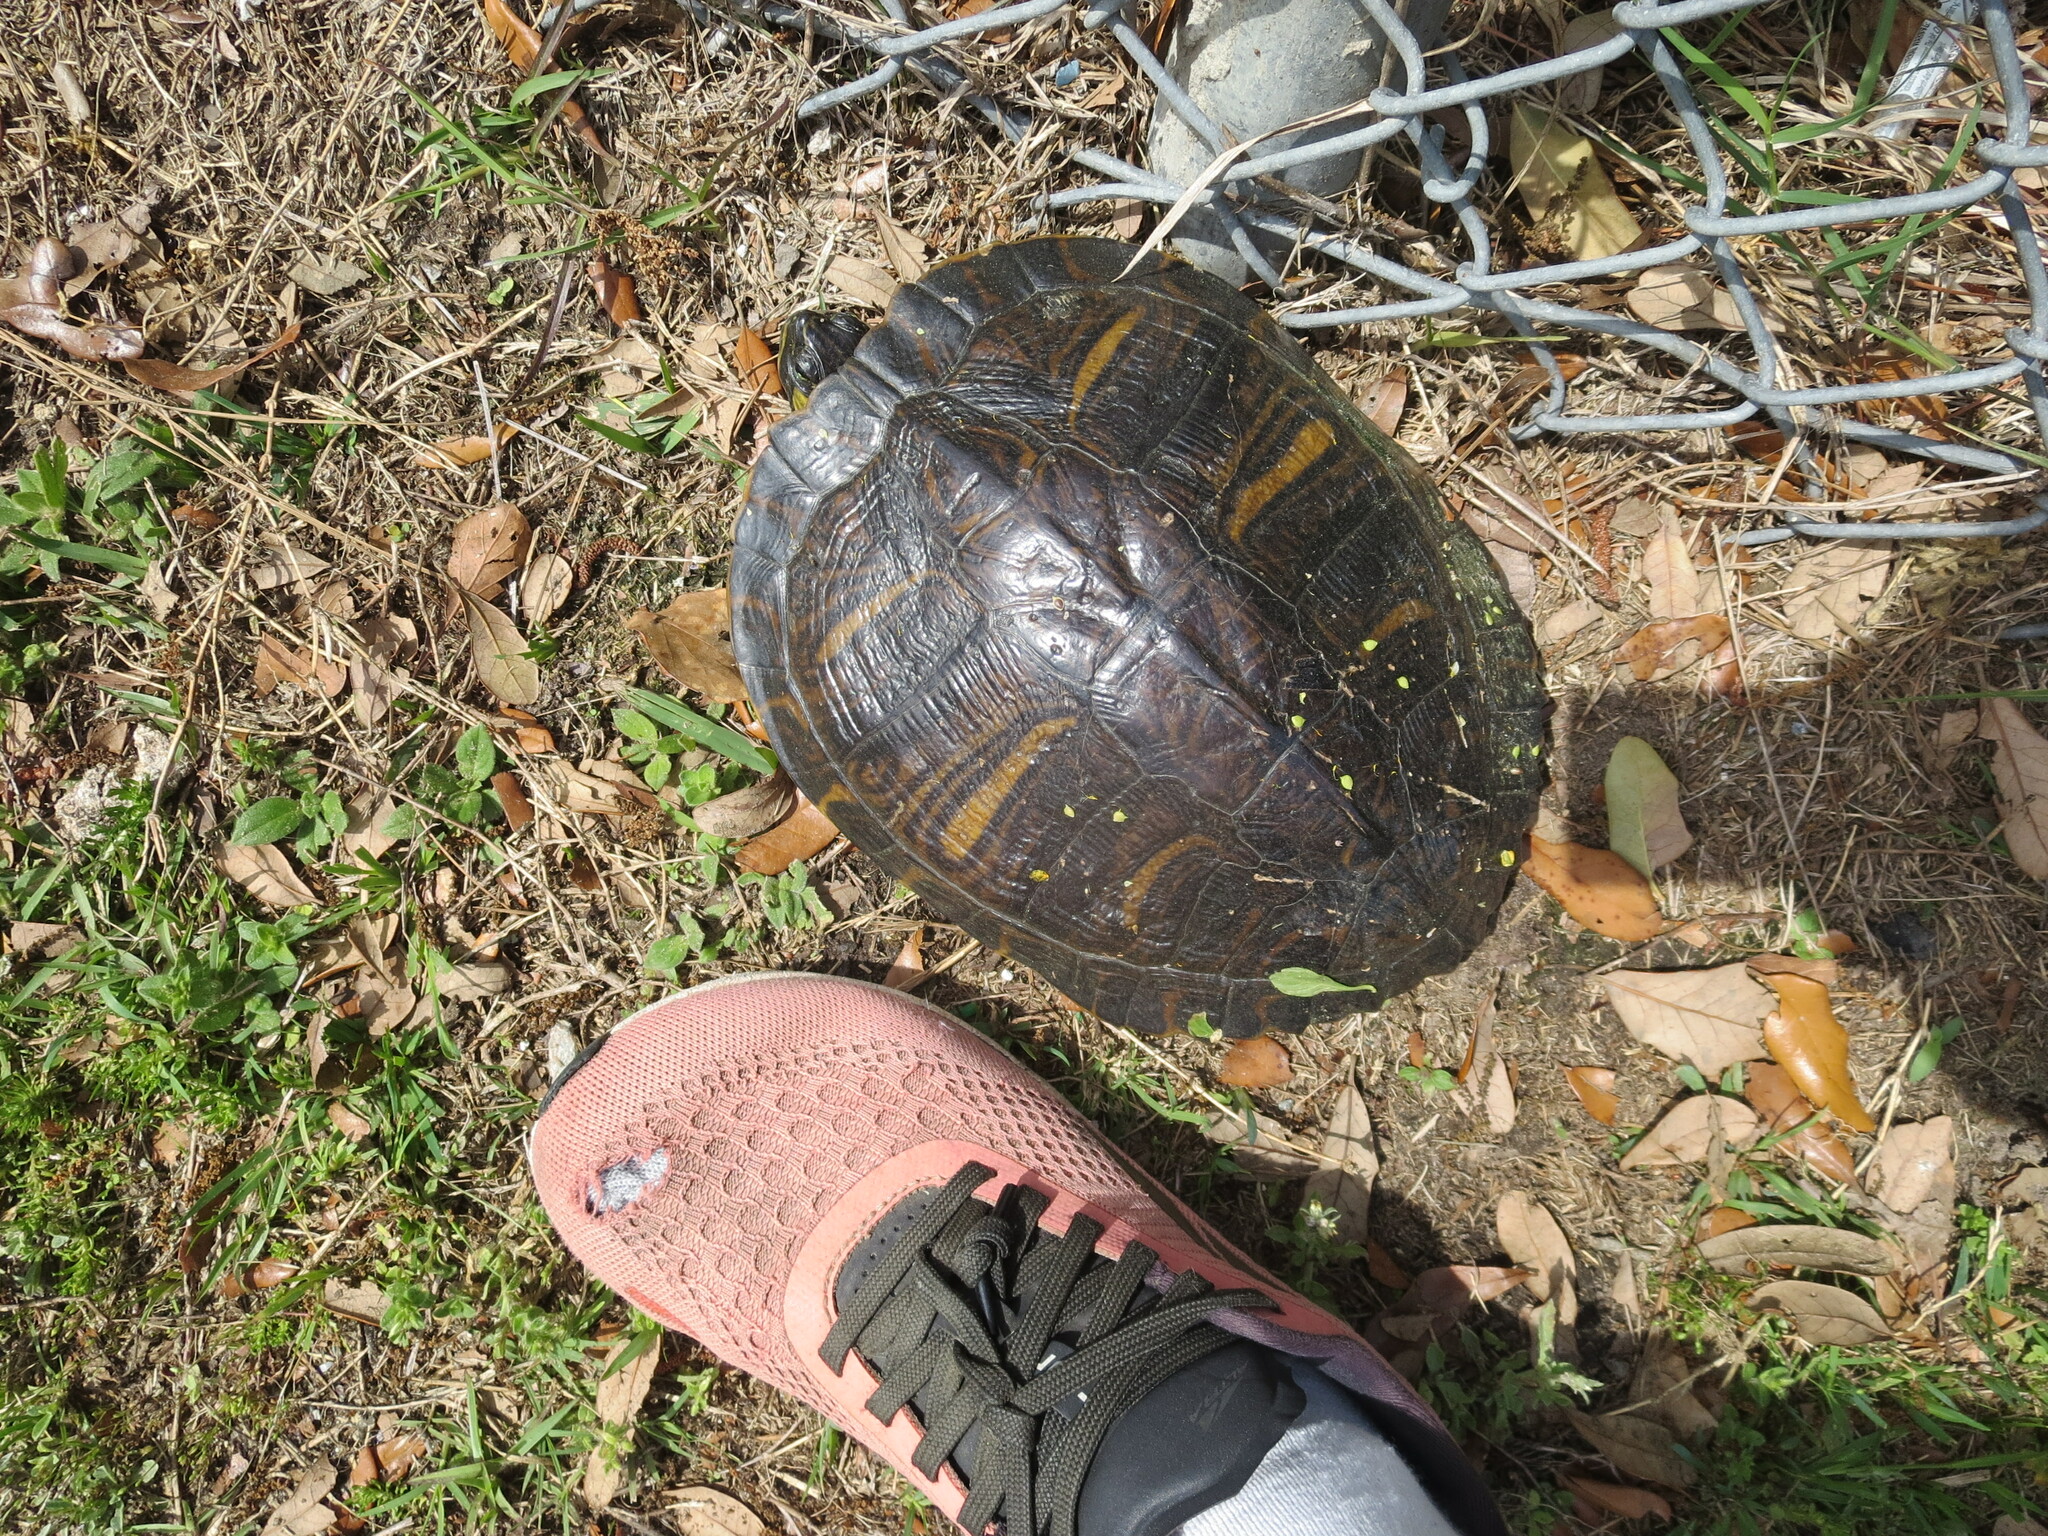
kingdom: Animalia
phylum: Chordata
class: Testudines
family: Emydidae
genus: Trachemys
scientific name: Trachemys scripta
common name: Slider
